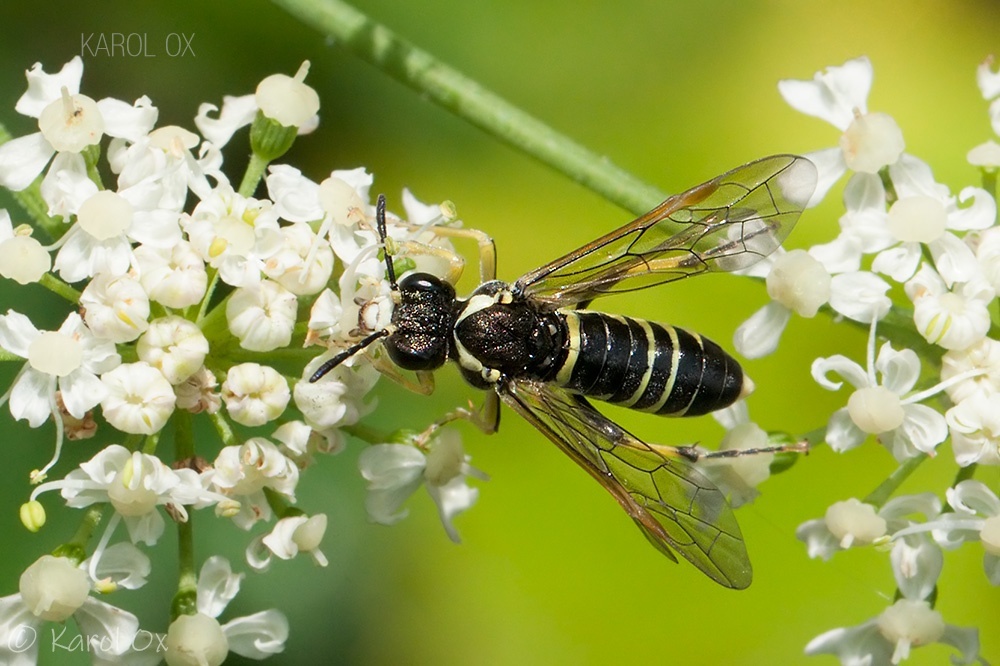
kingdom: Animalia
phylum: Arthropoda
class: Insecta
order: Hymenoptera
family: Tenthredinidae
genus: Tenthredo
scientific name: Tenthredo notha
